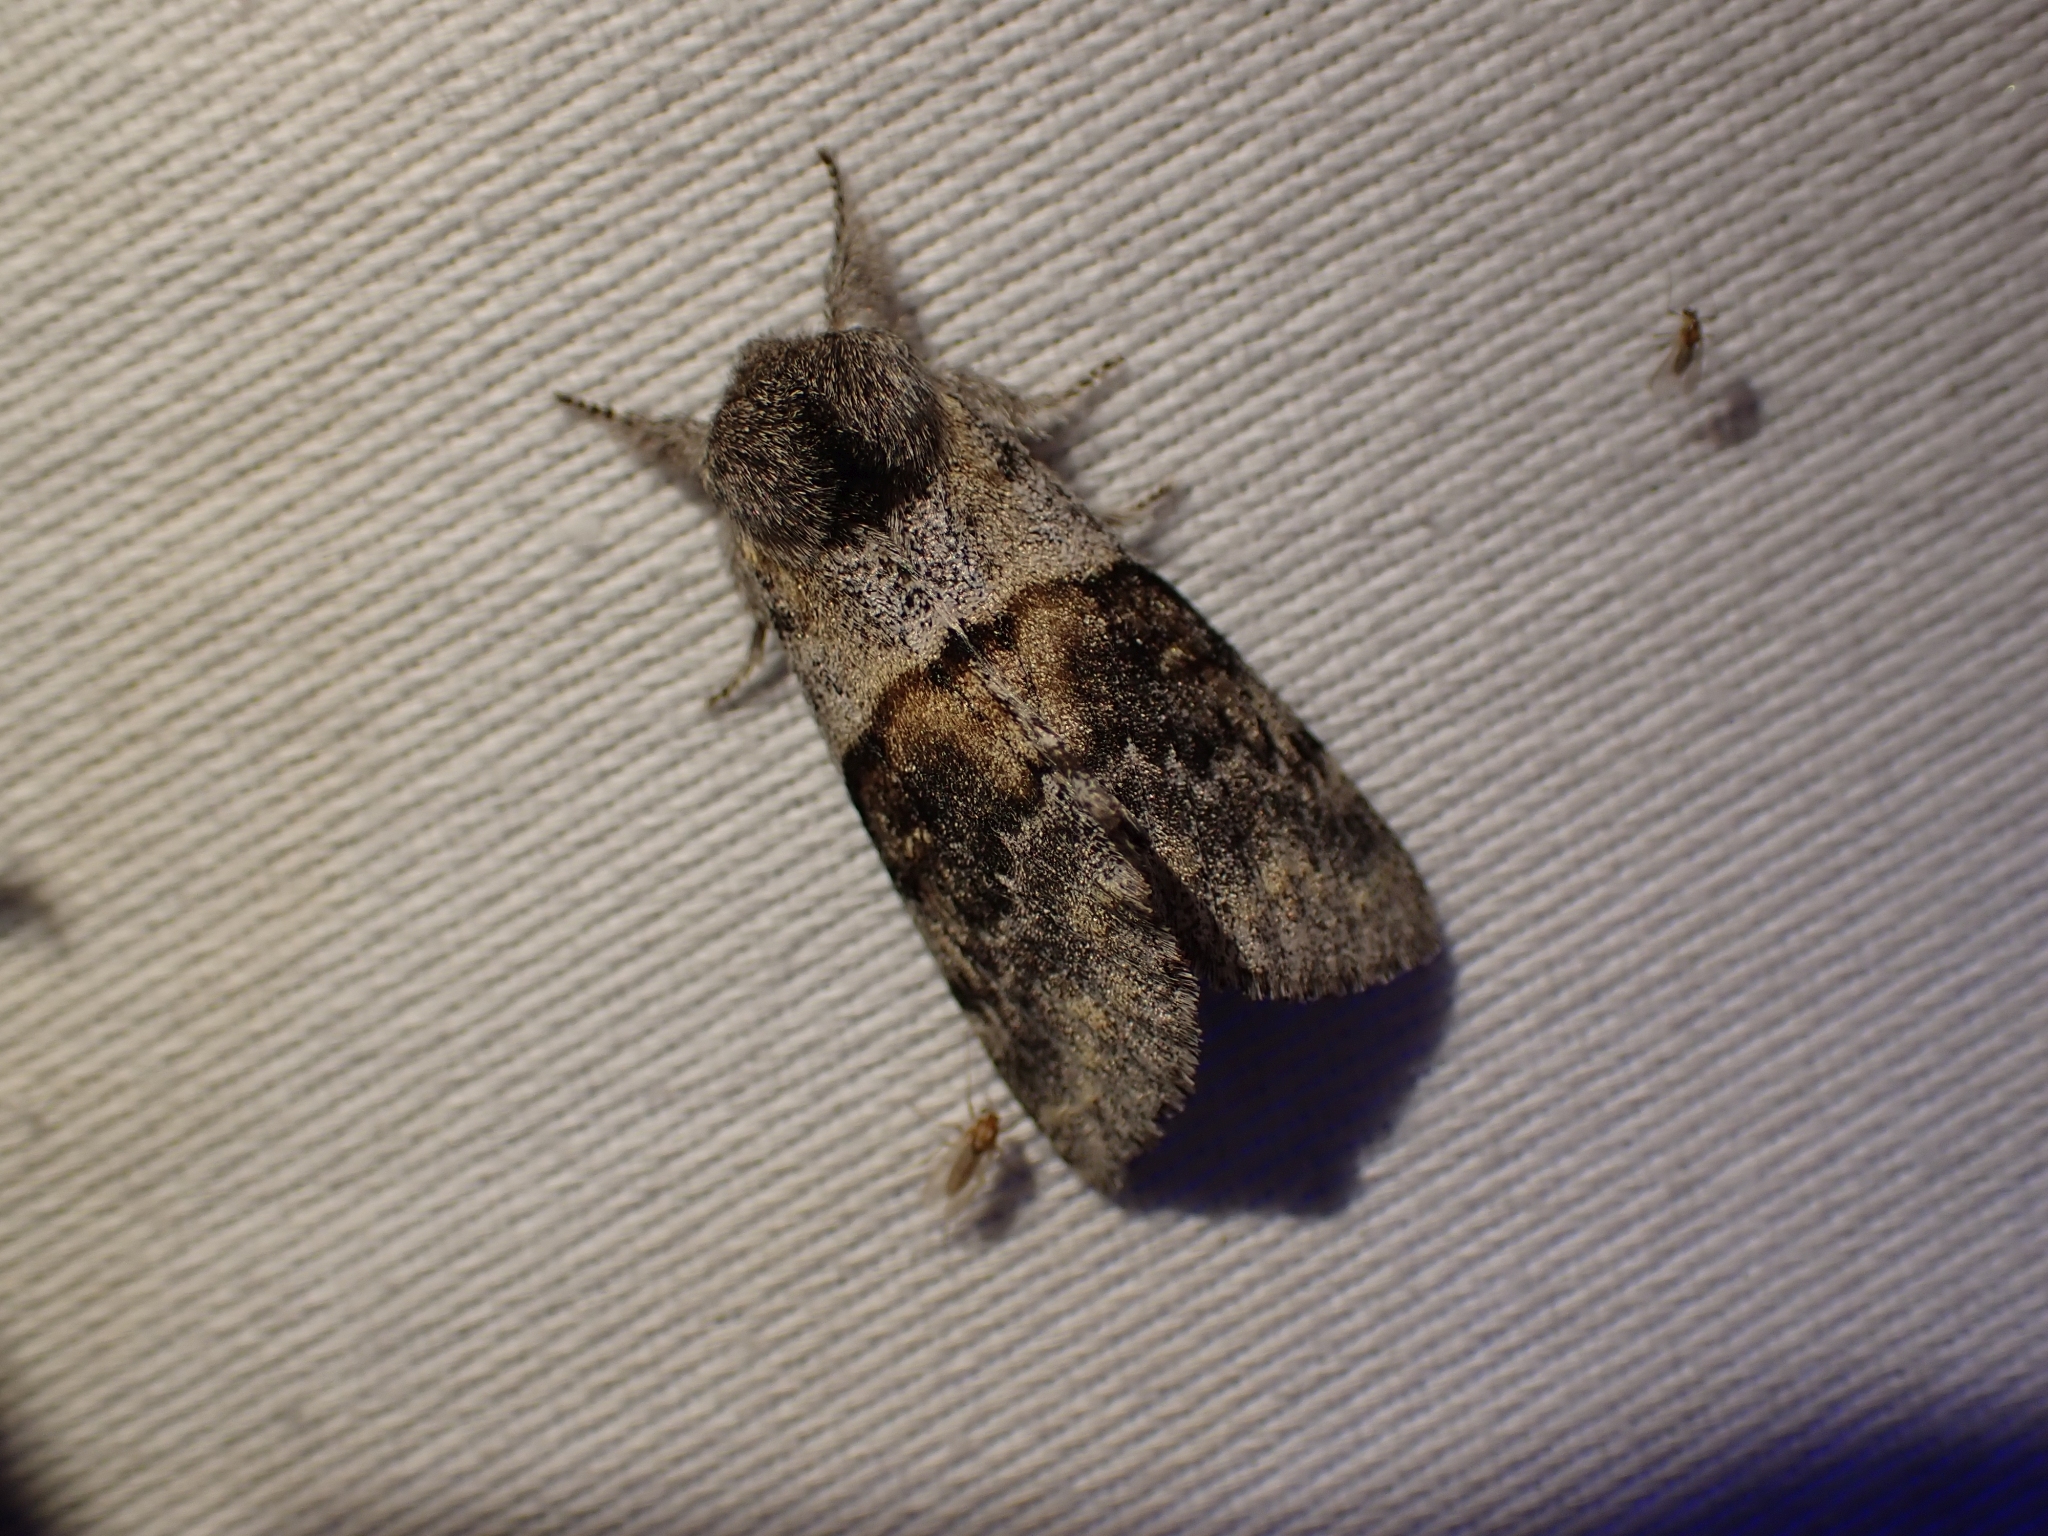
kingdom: Animalia
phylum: Arthropoda
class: Insecta
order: Lepidoptera
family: Notodontidae
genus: Gluphisia
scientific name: Gluphisia severa
